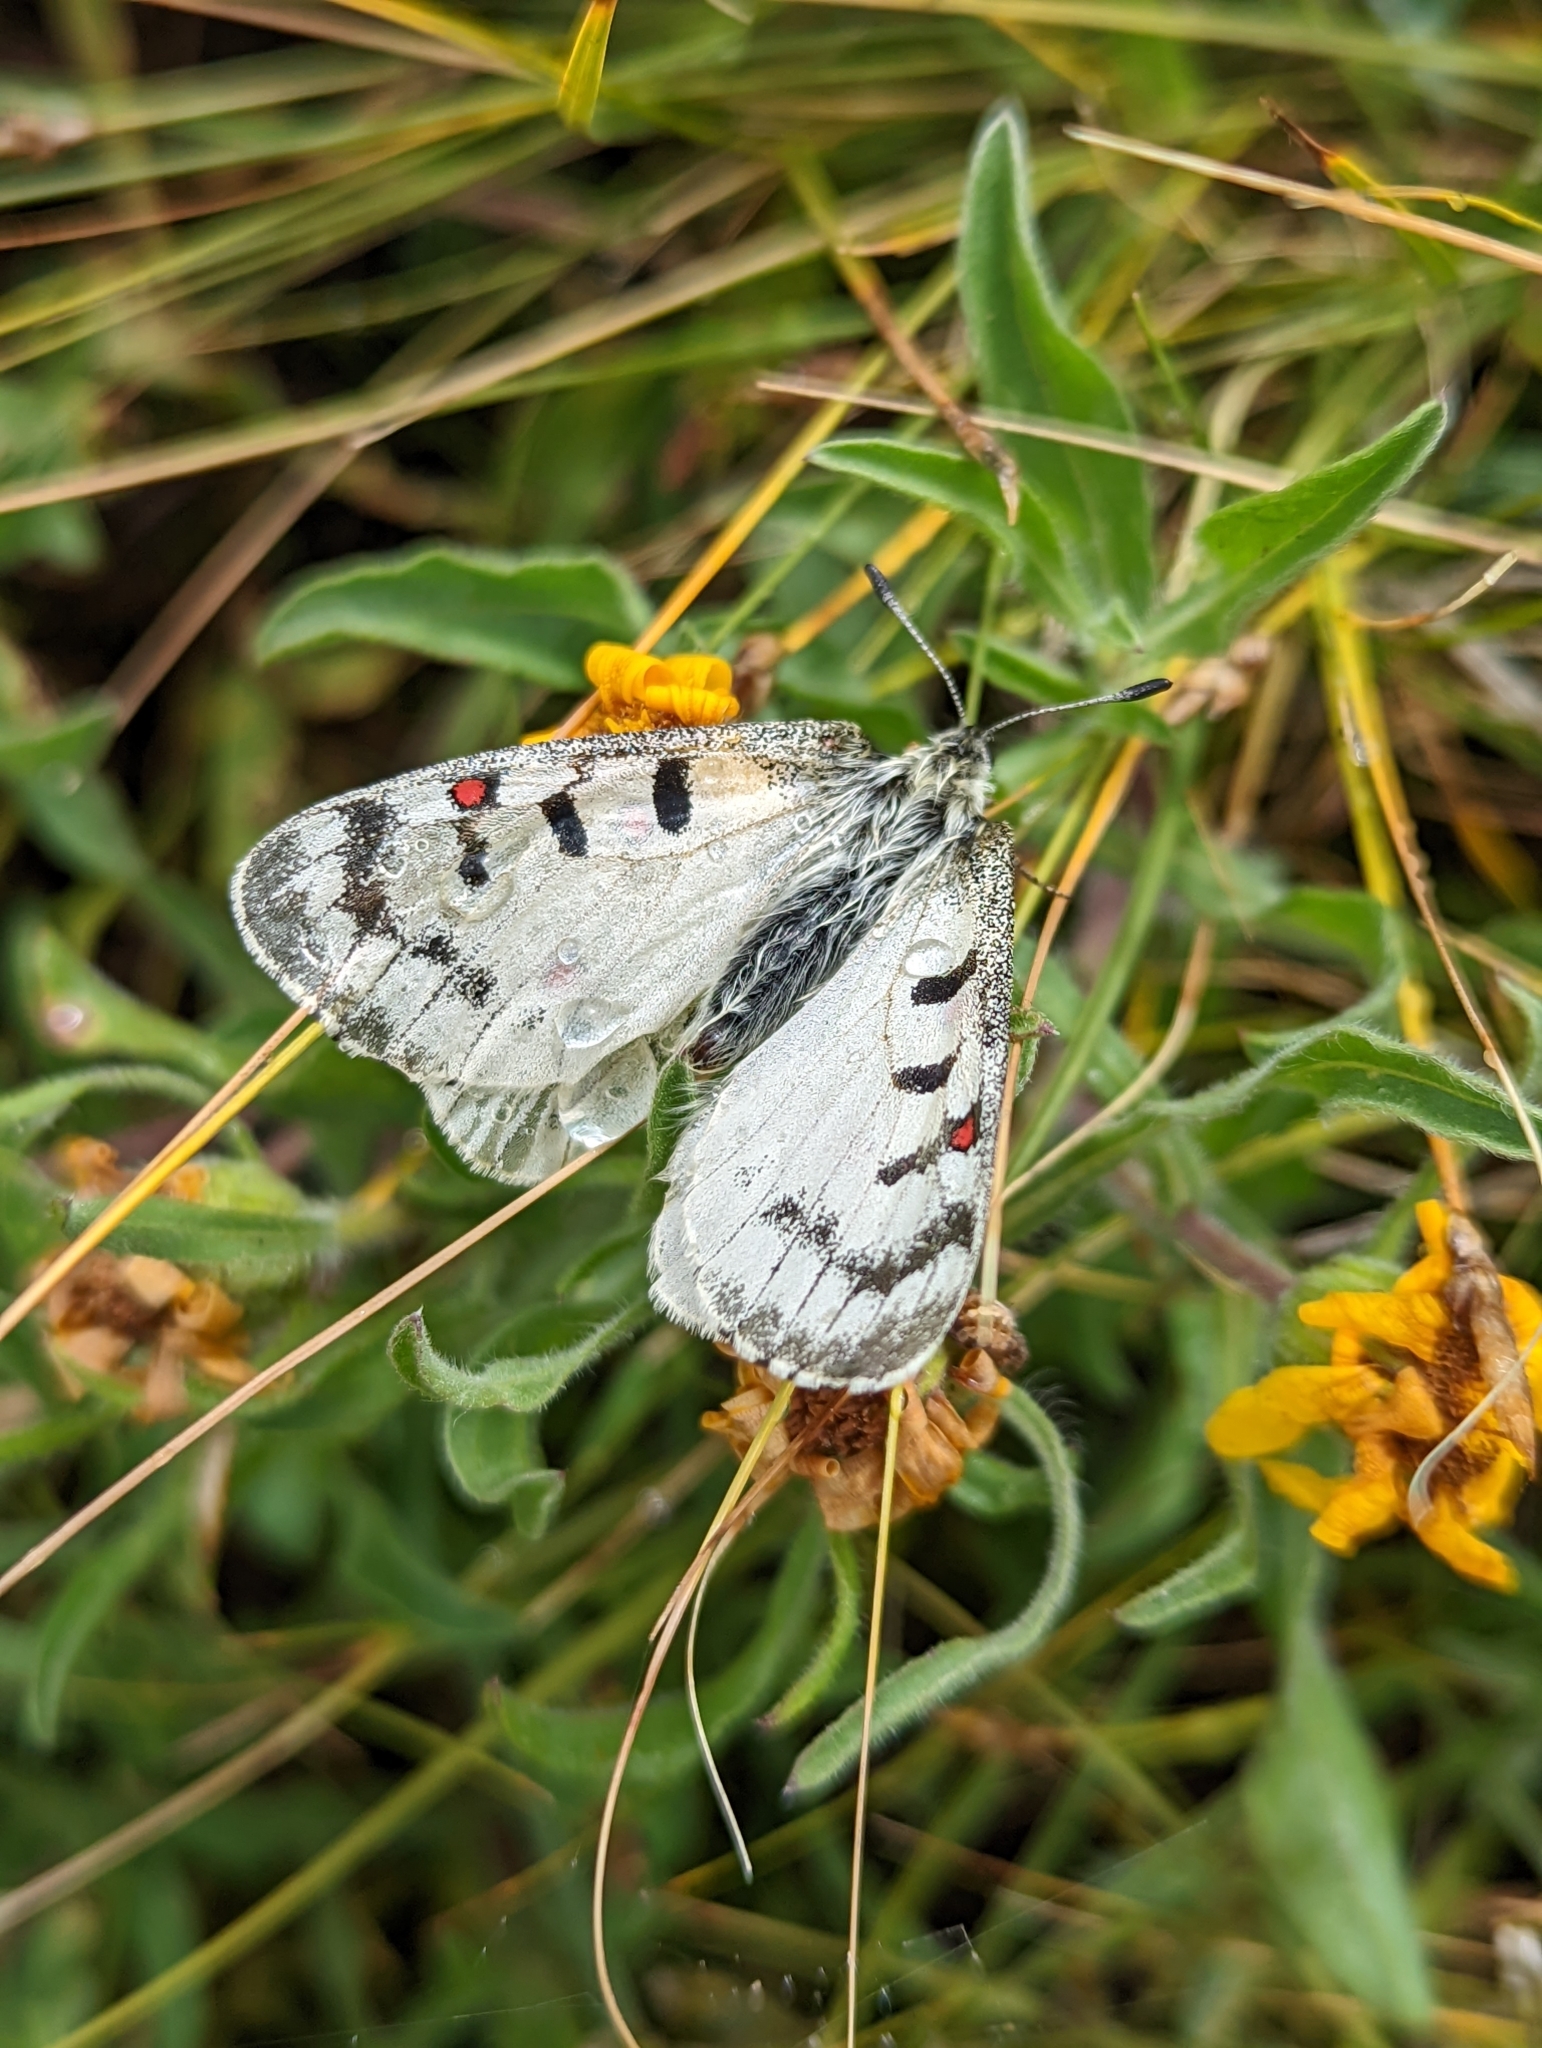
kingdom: Animalia
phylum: Arthropoda
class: Insecta
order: Lepidoptera
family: Papilionidae
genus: Parnassius
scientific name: Parnassius smintheus
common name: Mountain parnassian
